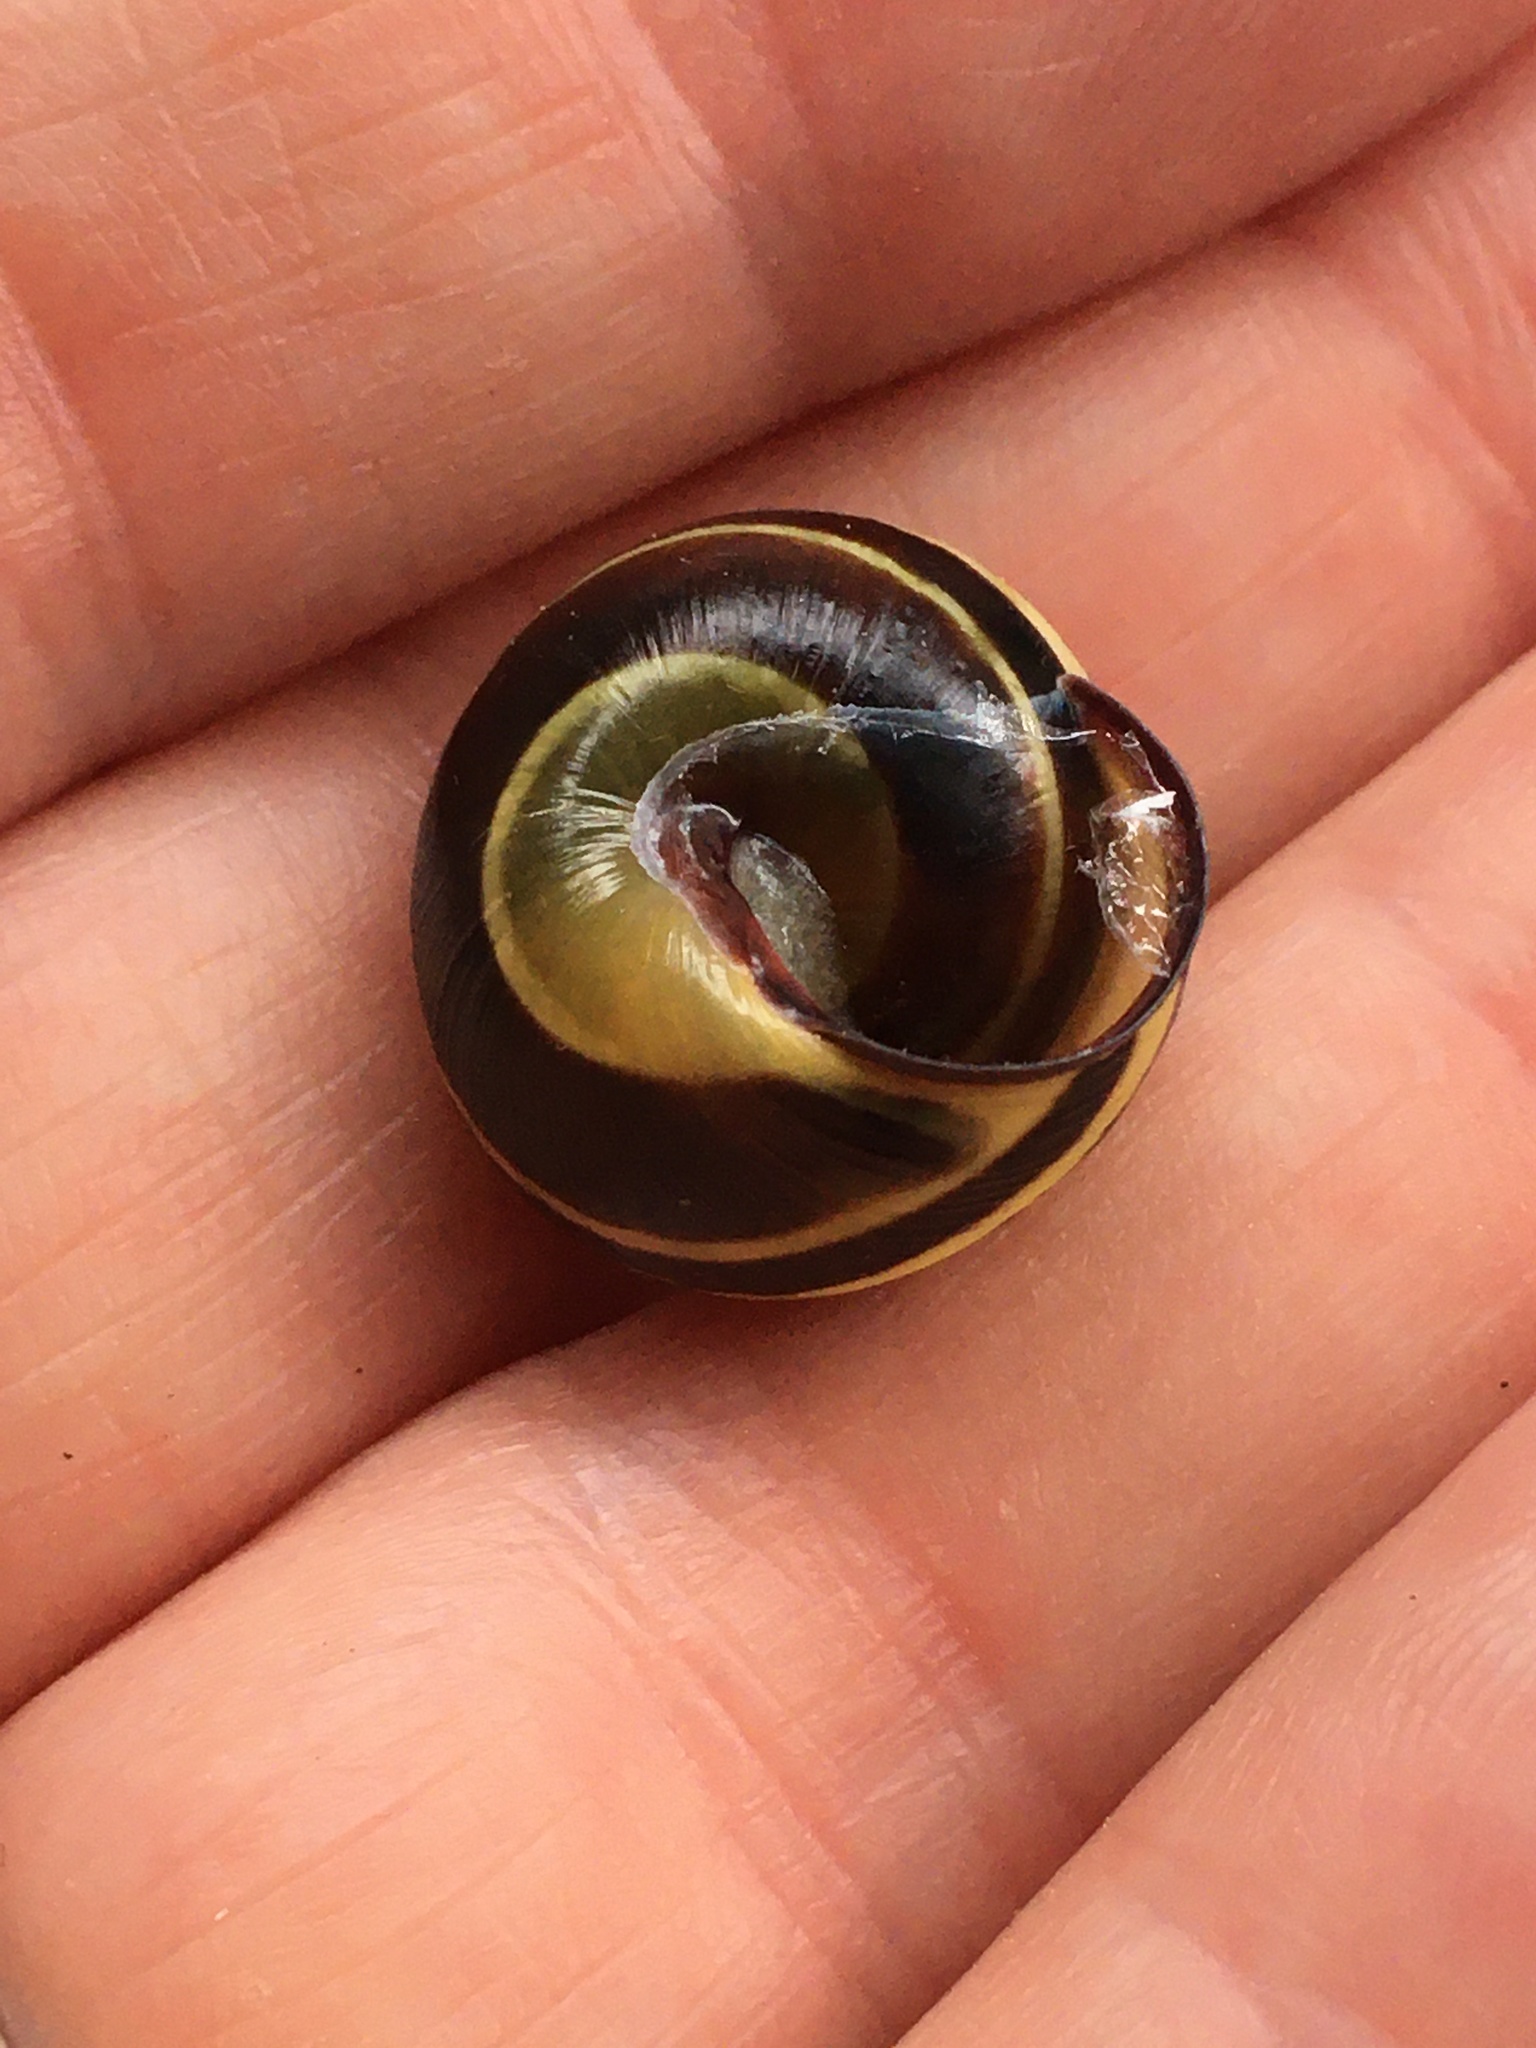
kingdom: Animalia
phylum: Mollusca
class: Gastropoda
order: Stylommatophora
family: Helicidae
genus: Cepaea
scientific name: Cepaea nemoralis
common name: Grovesnail
